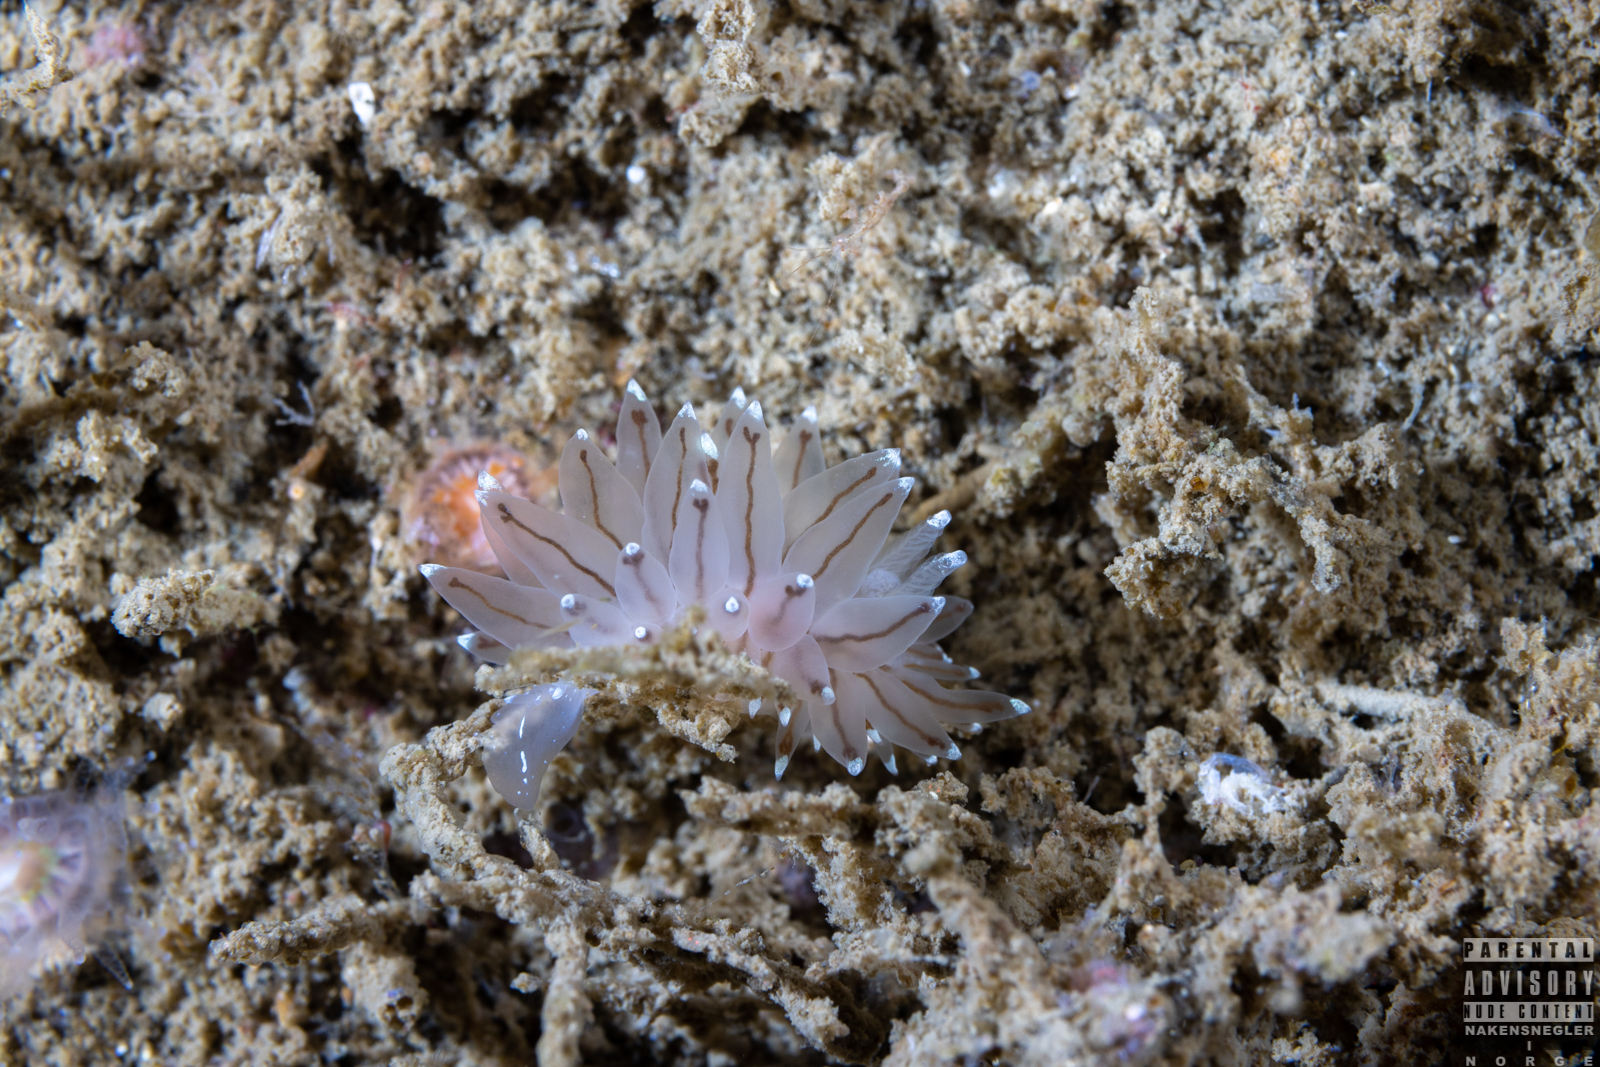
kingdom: Animalia
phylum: Mollusca
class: Gastropoda
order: Nudibranchia
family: Janolidae
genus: Antiopella
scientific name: Antiopella cristata
